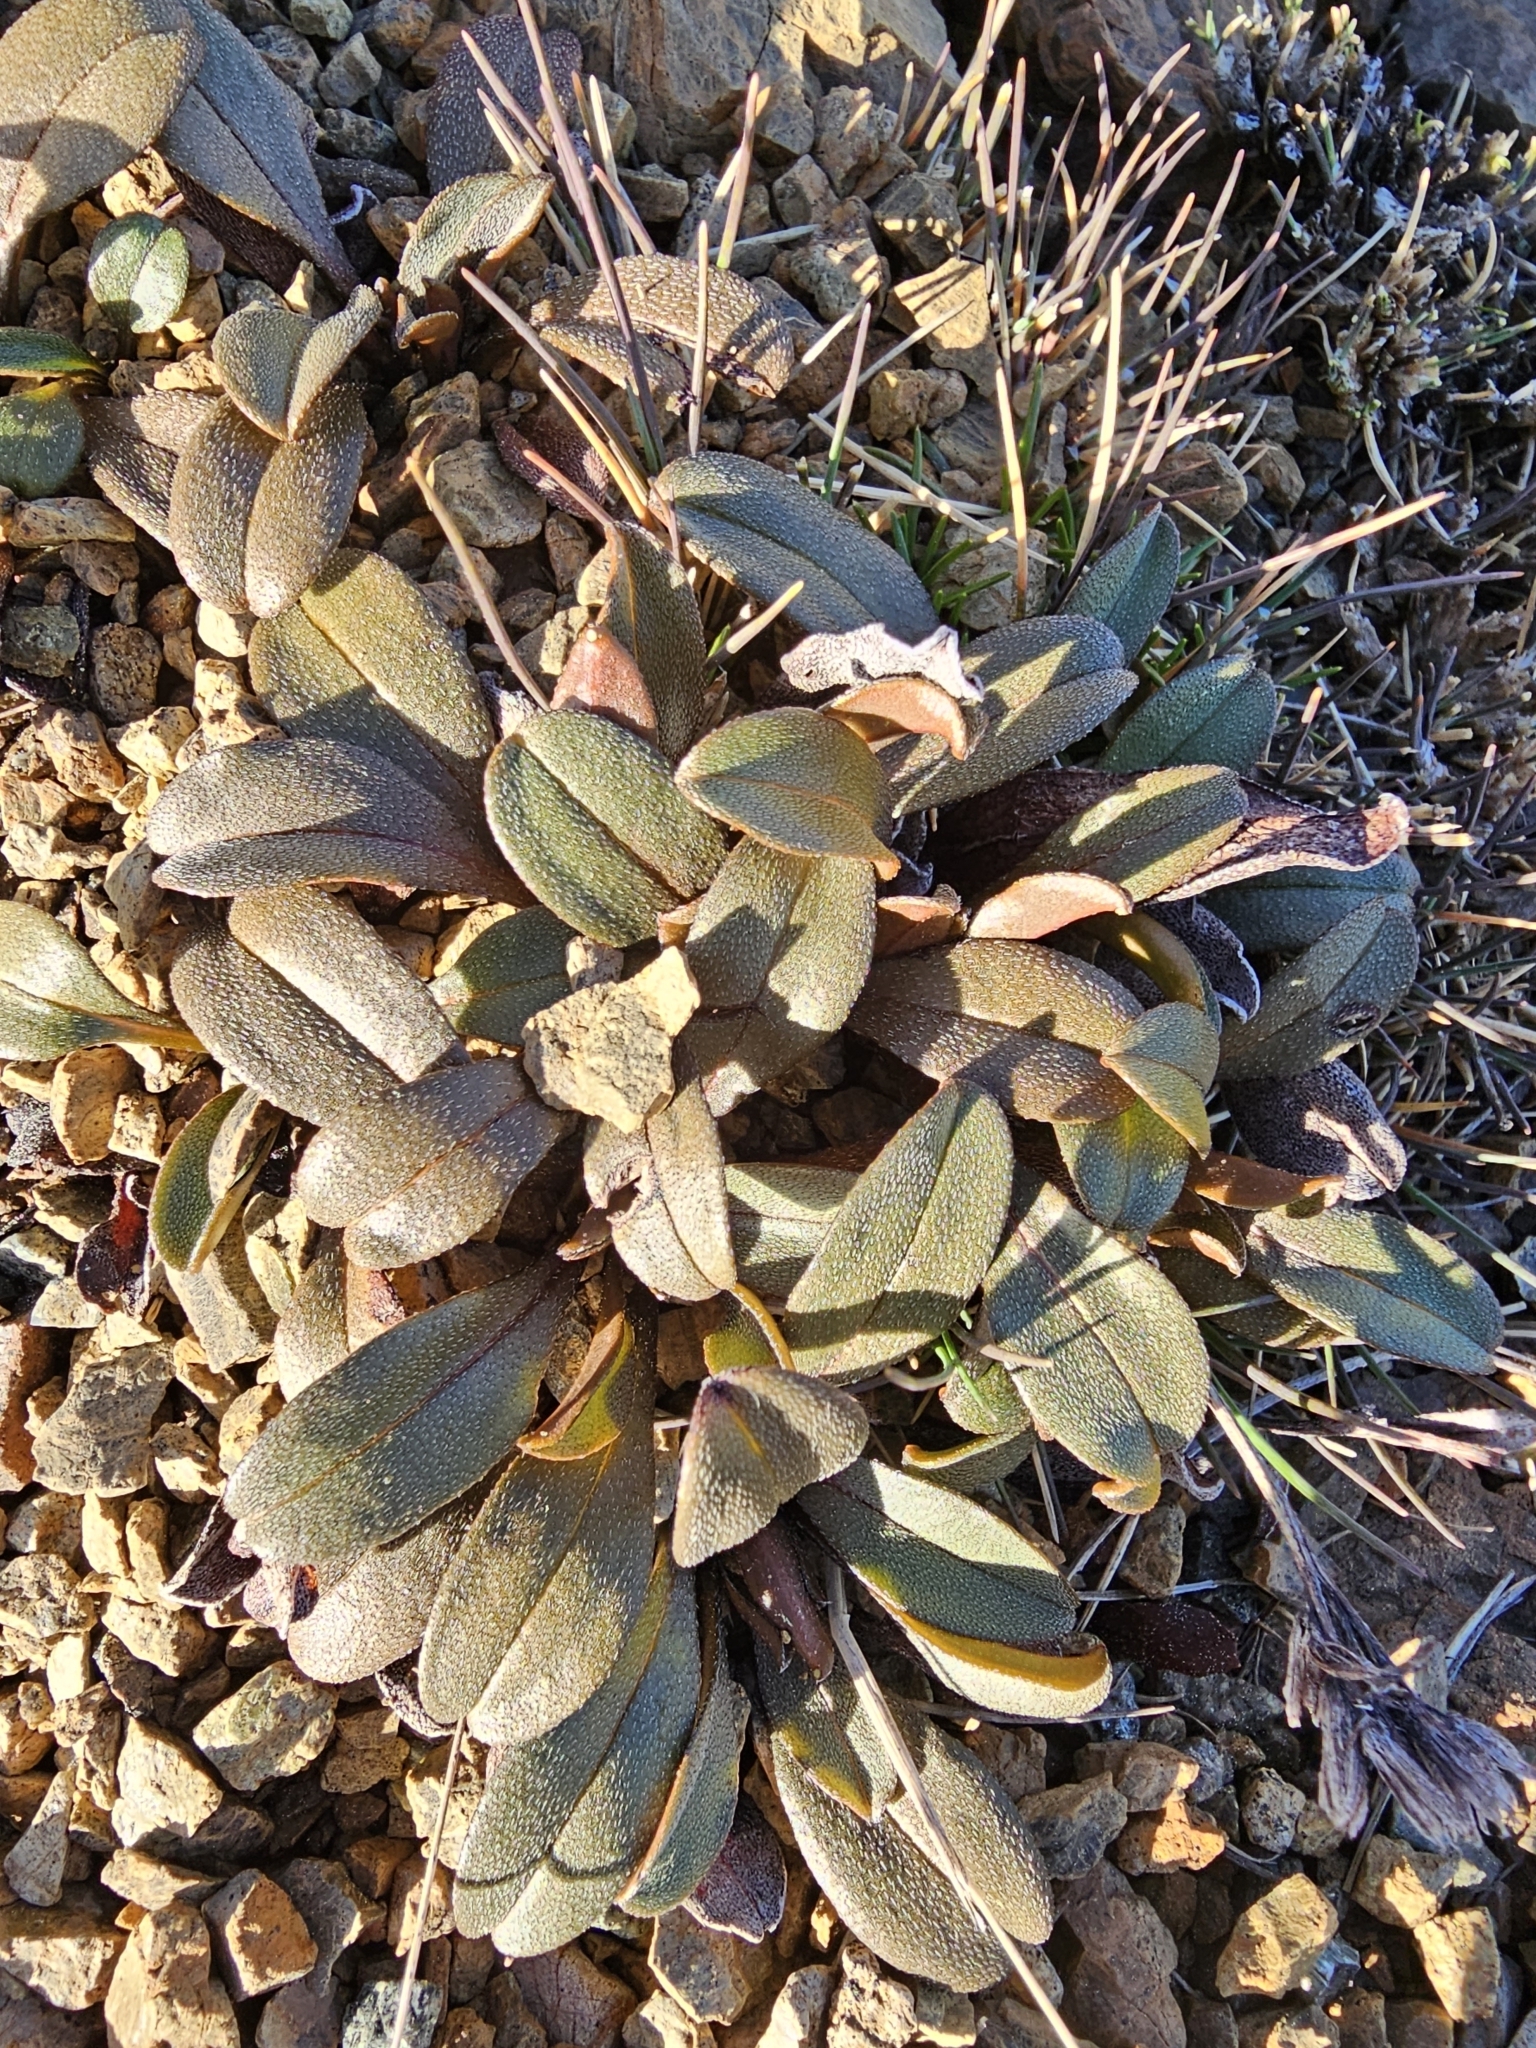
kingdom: Plantae
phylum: Tracheophyta
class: Magnoliopsida
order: Boraginales
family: Boraginaceae
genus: Myosotis
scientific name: Myosotis monroi
